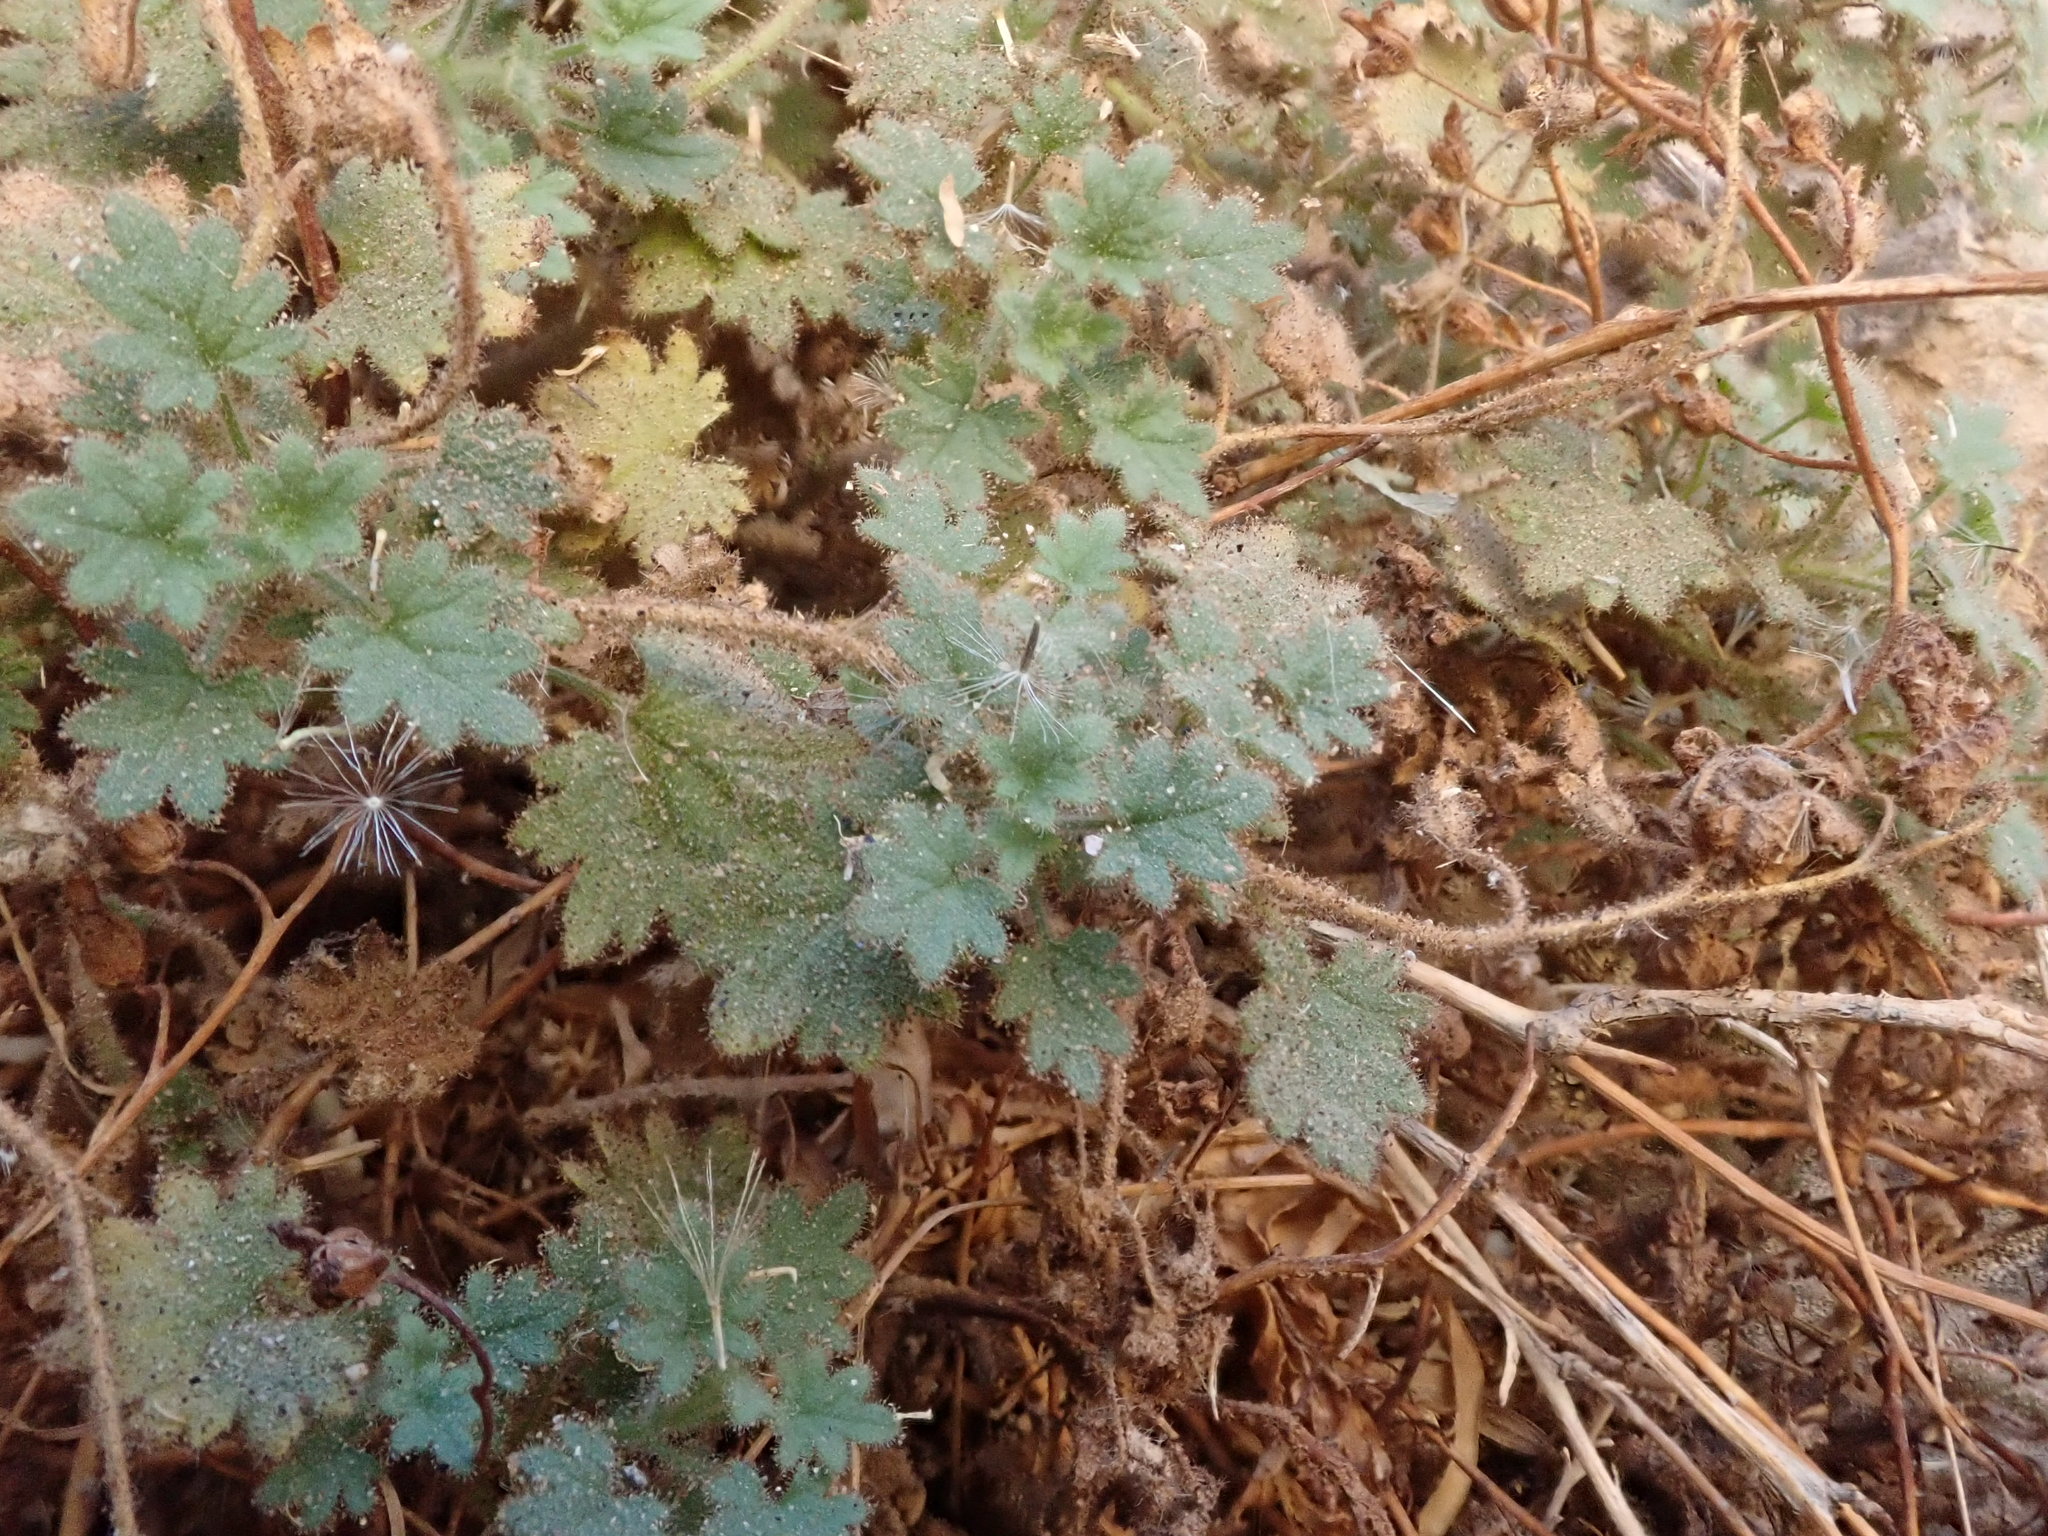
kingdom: Plantae
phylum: Tracheophyta
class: Magnoliopsida
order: Boraginales
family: Hydrophyllaceae
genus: Phacelia
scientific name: Phacelia perityloides
